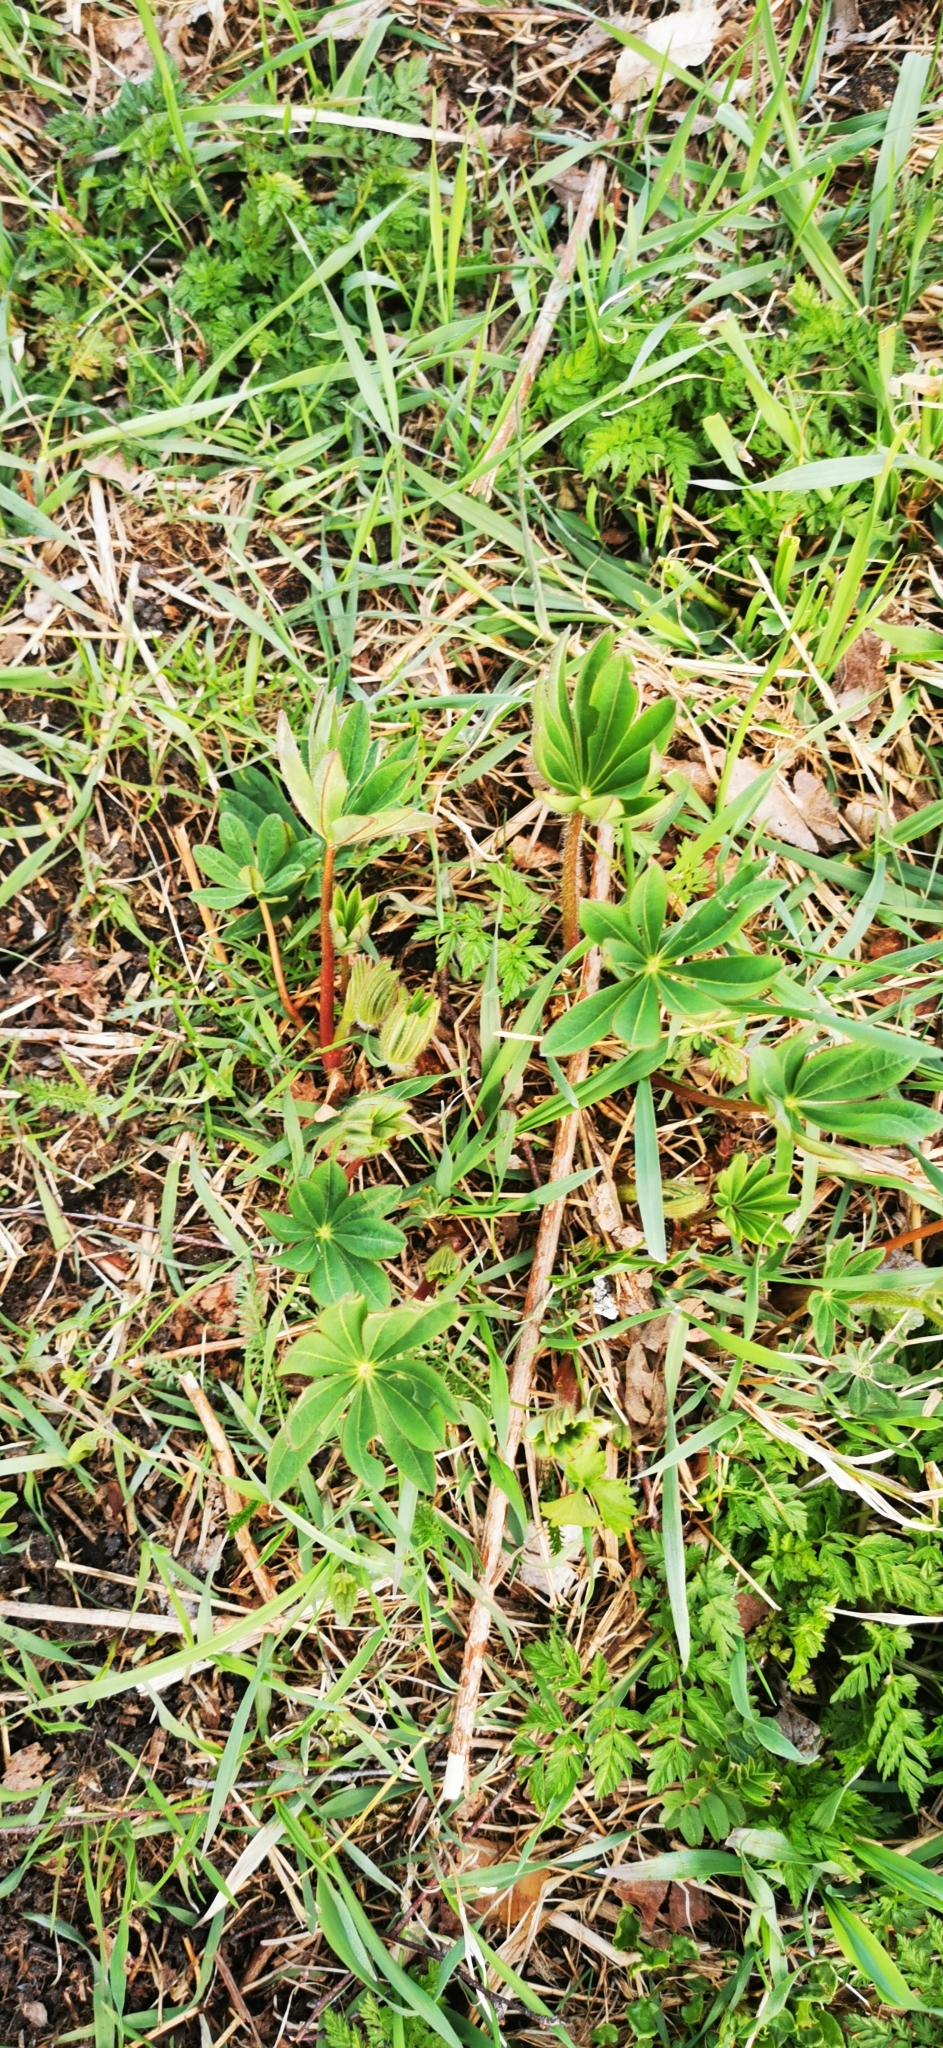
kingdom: Plantae
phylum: Tracheophyta
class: Magnoliopsida
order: Fabales
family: Fabaceae
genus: Lupinus
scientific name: Lupinus polyphyllus
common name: Garden lupin
